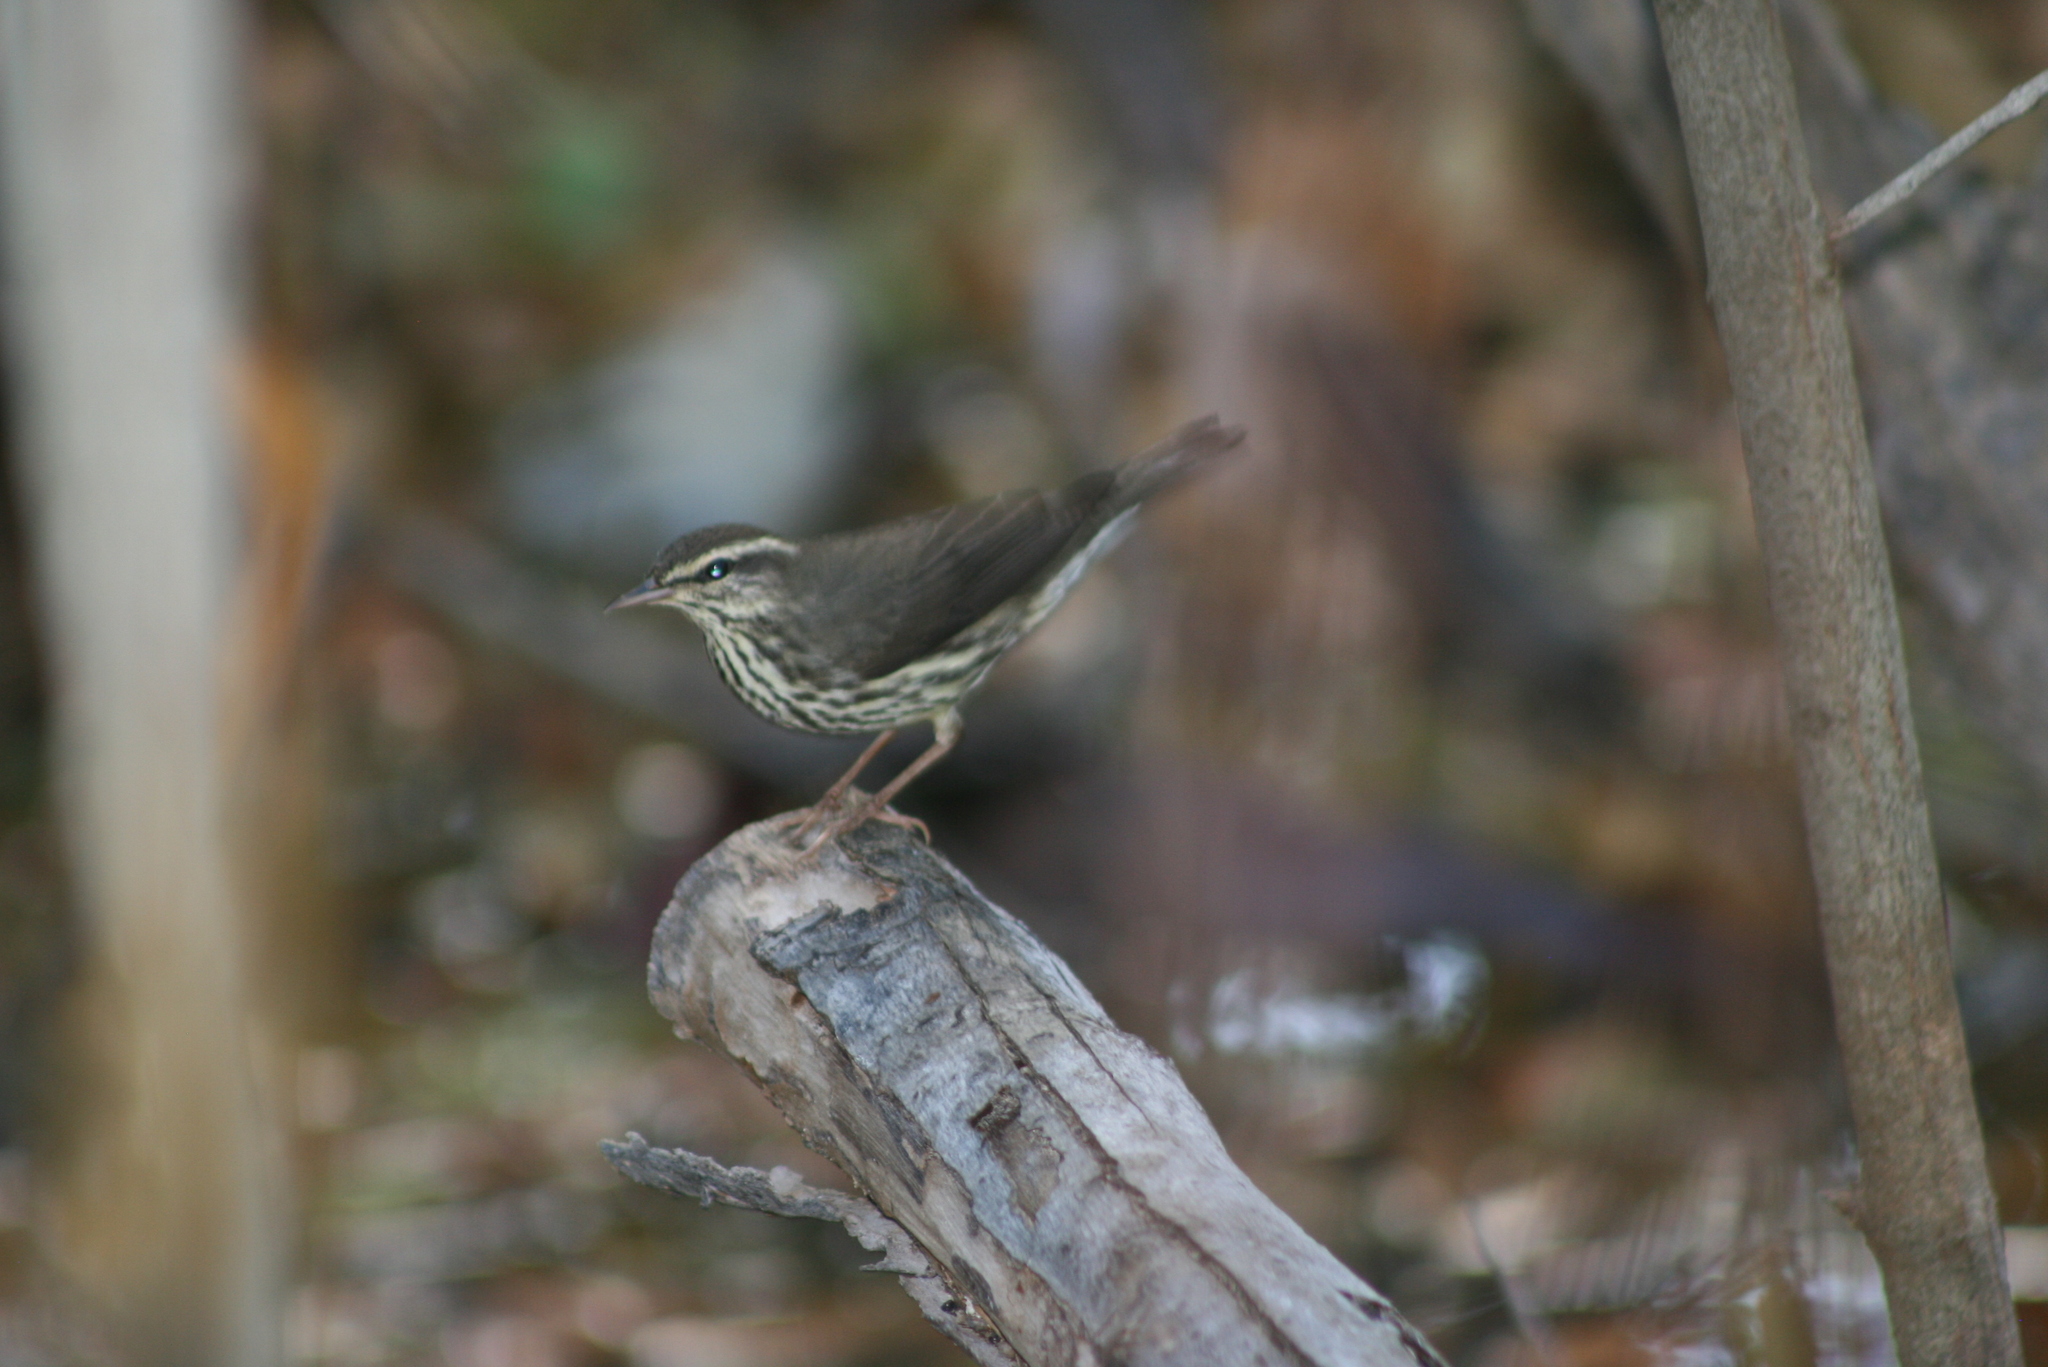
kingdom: Animalia
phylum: Chordata
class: Aves
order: Passeriformes
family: Parulidae
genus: Parkesia
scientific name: Parkesia noveboracensis
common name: Northern waterthrush
